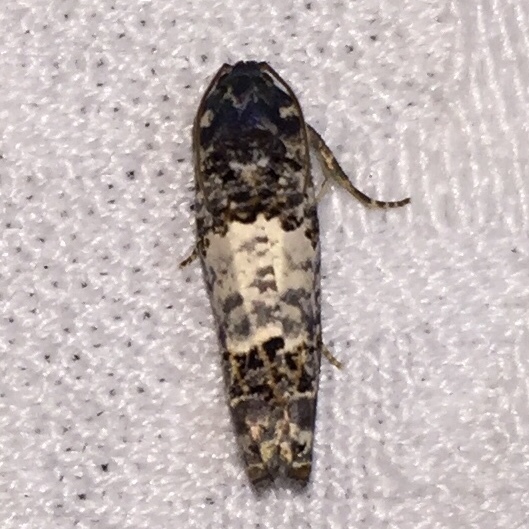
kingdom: Animalia
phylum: Arthropoda
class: Insecta
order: Lepidoptera
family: Tortricidae
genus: Epiblema
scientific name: Epiblema carolinana
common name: Gray-blotched epiblema moth
